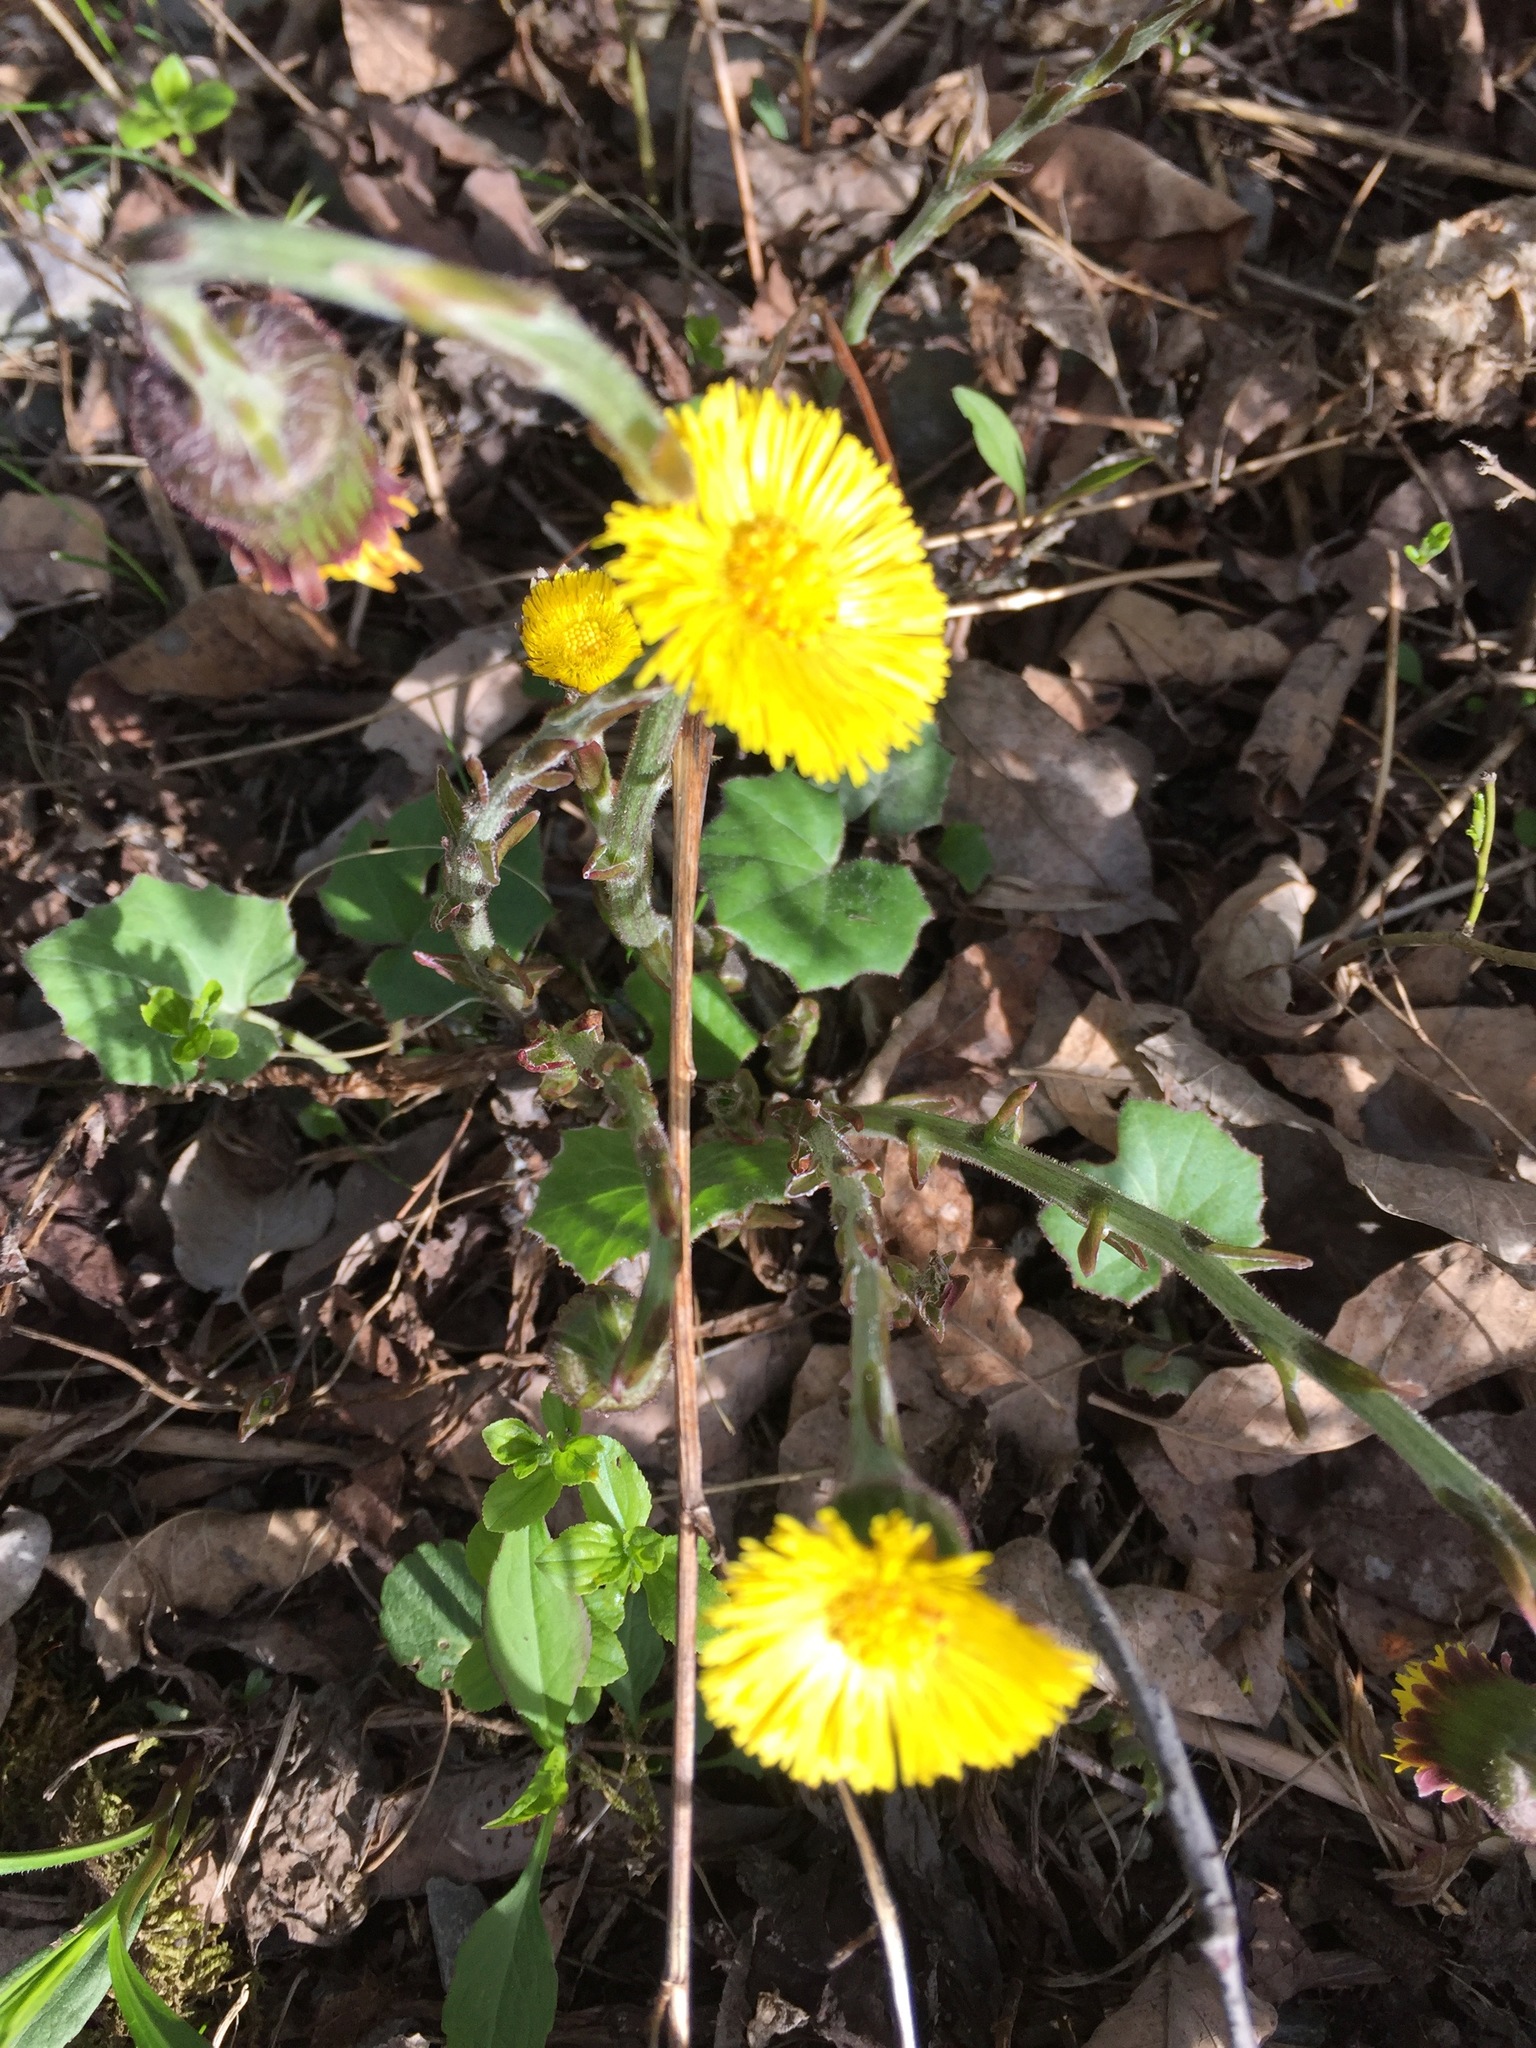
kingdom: Plantae
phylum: Tracheophyta
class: Magnoliopsida
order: Asterales
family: Asteraceae
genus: Tussilago
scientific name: Tussilago farfara
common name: Coltsfoot
